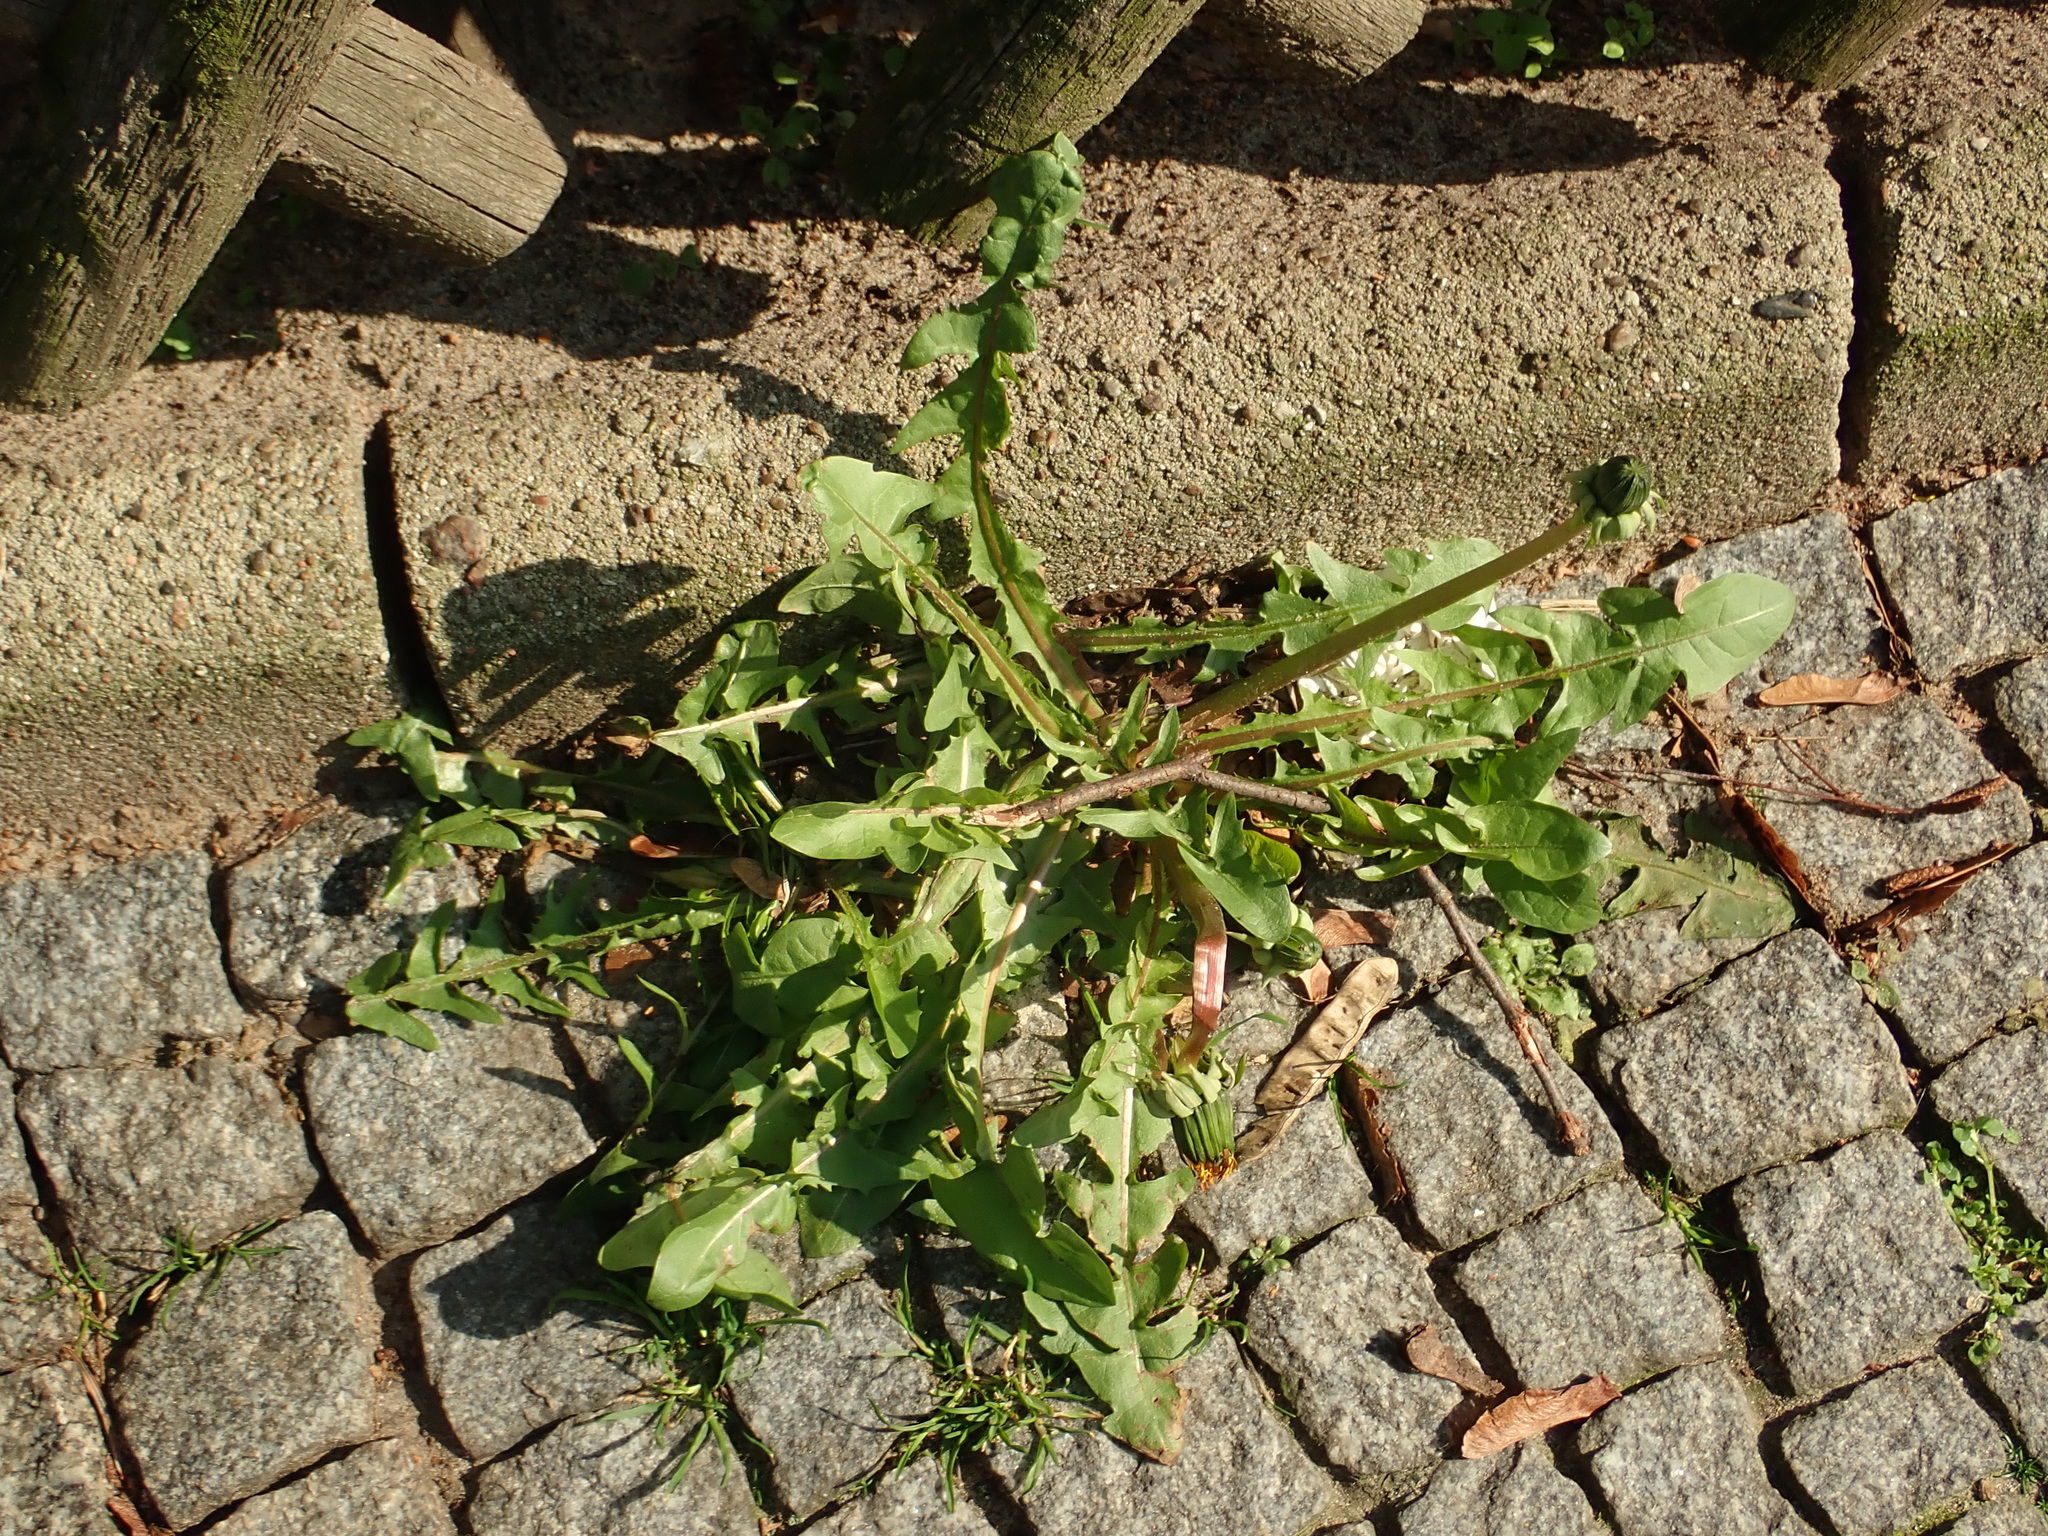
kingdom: Plantae
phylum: Tracheophyta
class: Magnoliopsida
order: Asterales
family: Asteraceae
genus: Taraxacum
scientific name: Taraxacum officinale
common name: Common dandelion
